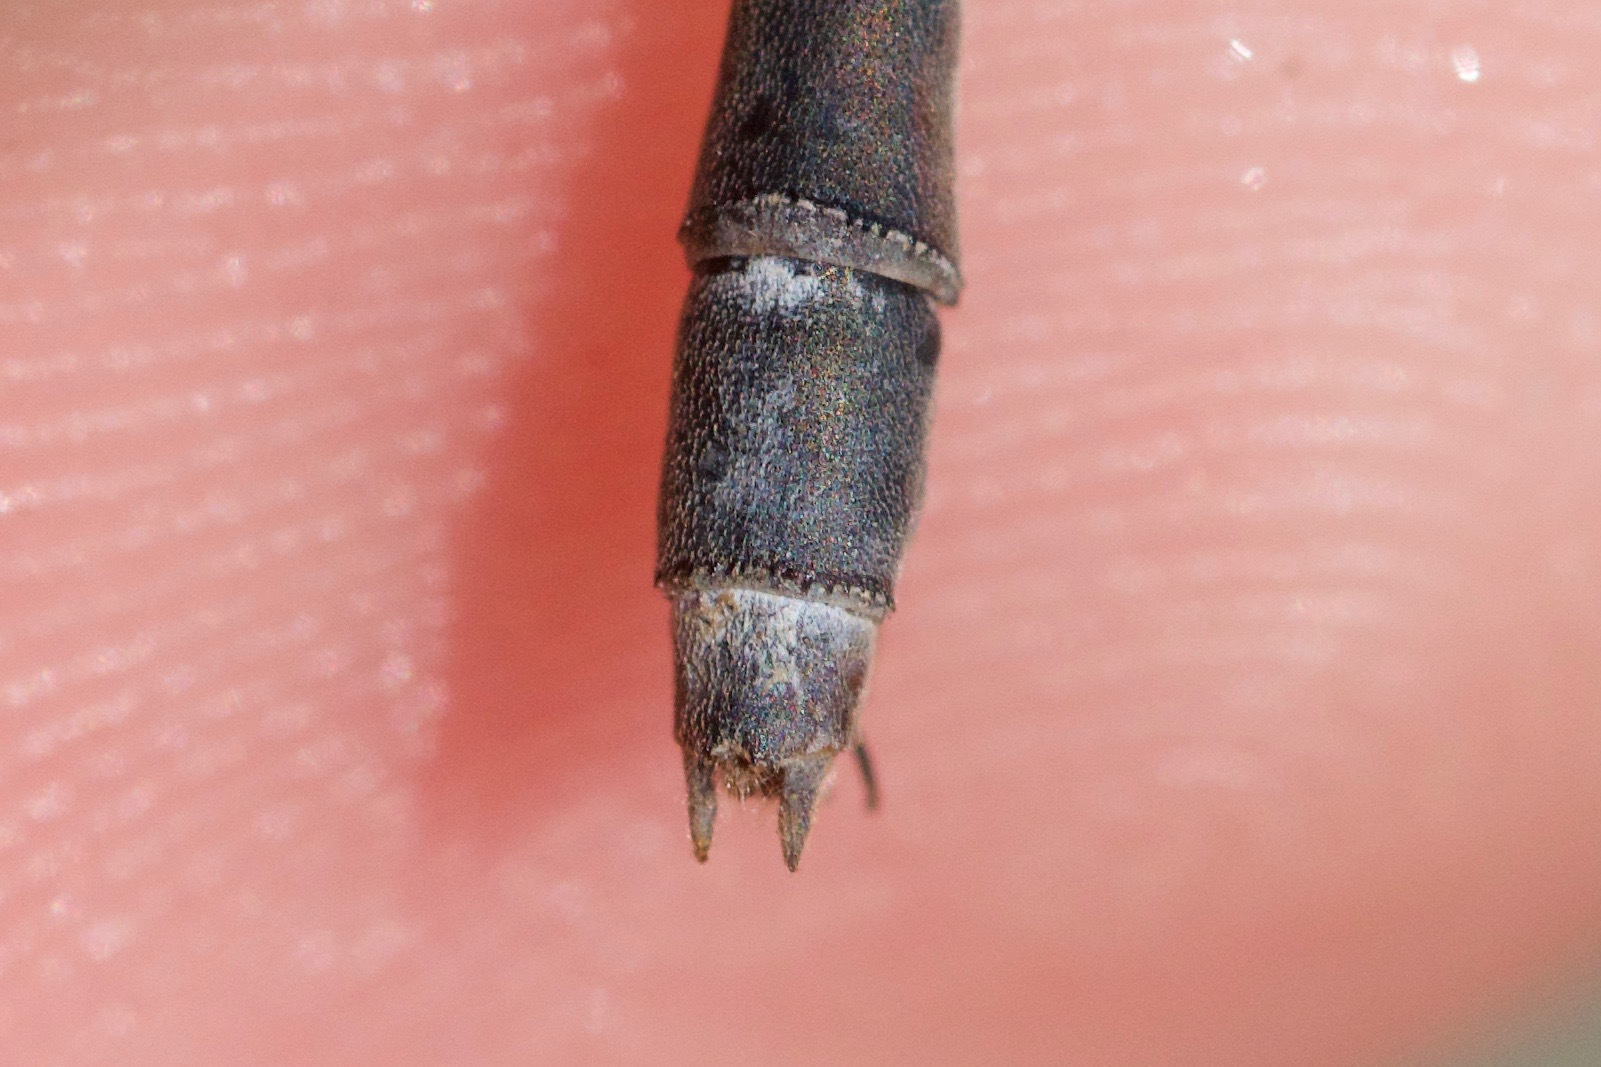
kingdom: Animalia
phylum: Arthropoda
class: Insecta
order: Odonata
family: Lestidae
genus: Lestes
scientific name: Lestes vigilax
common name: Swamp spreadwing
